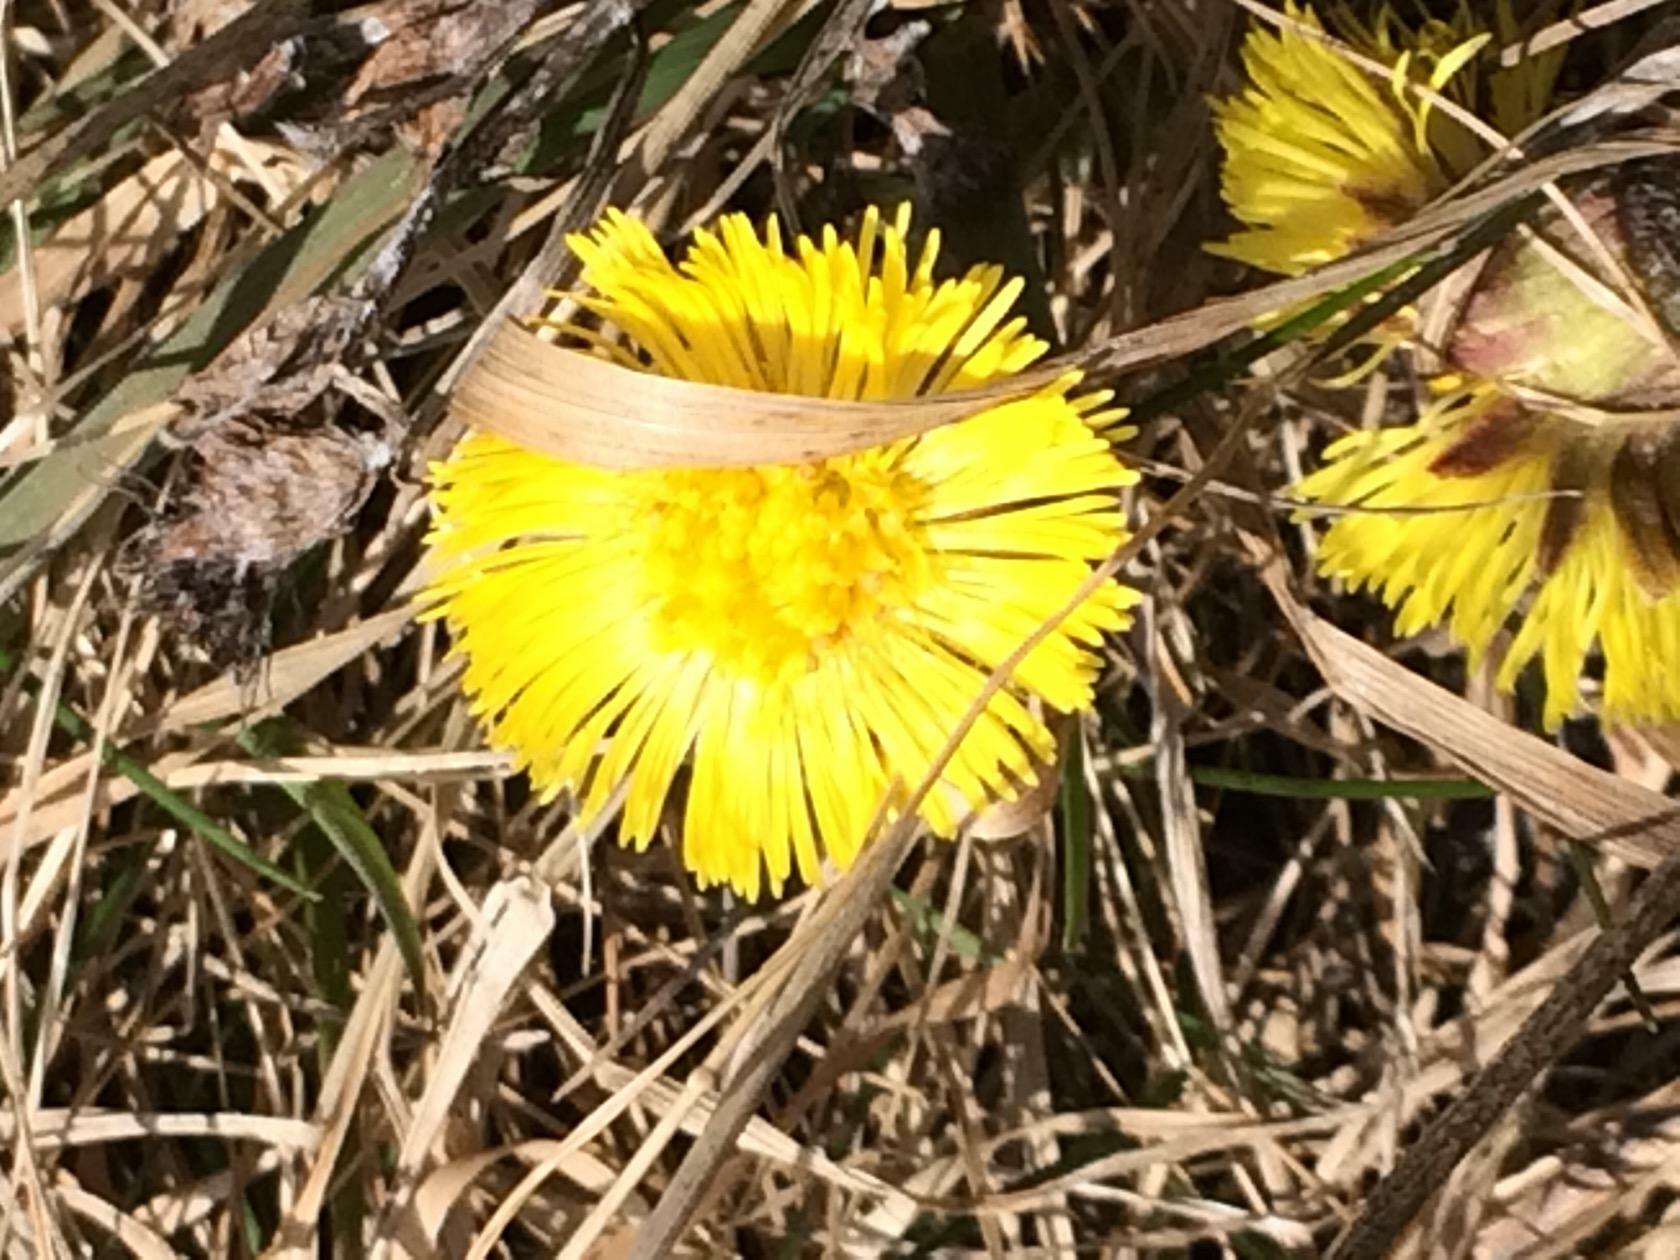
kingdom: Plantae
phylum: Tracheophyta
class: Magnoliopsida
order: Asterales
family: Asteraceae
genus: Tussilago
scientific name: Tussilago farfara
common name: Coltsfoot
